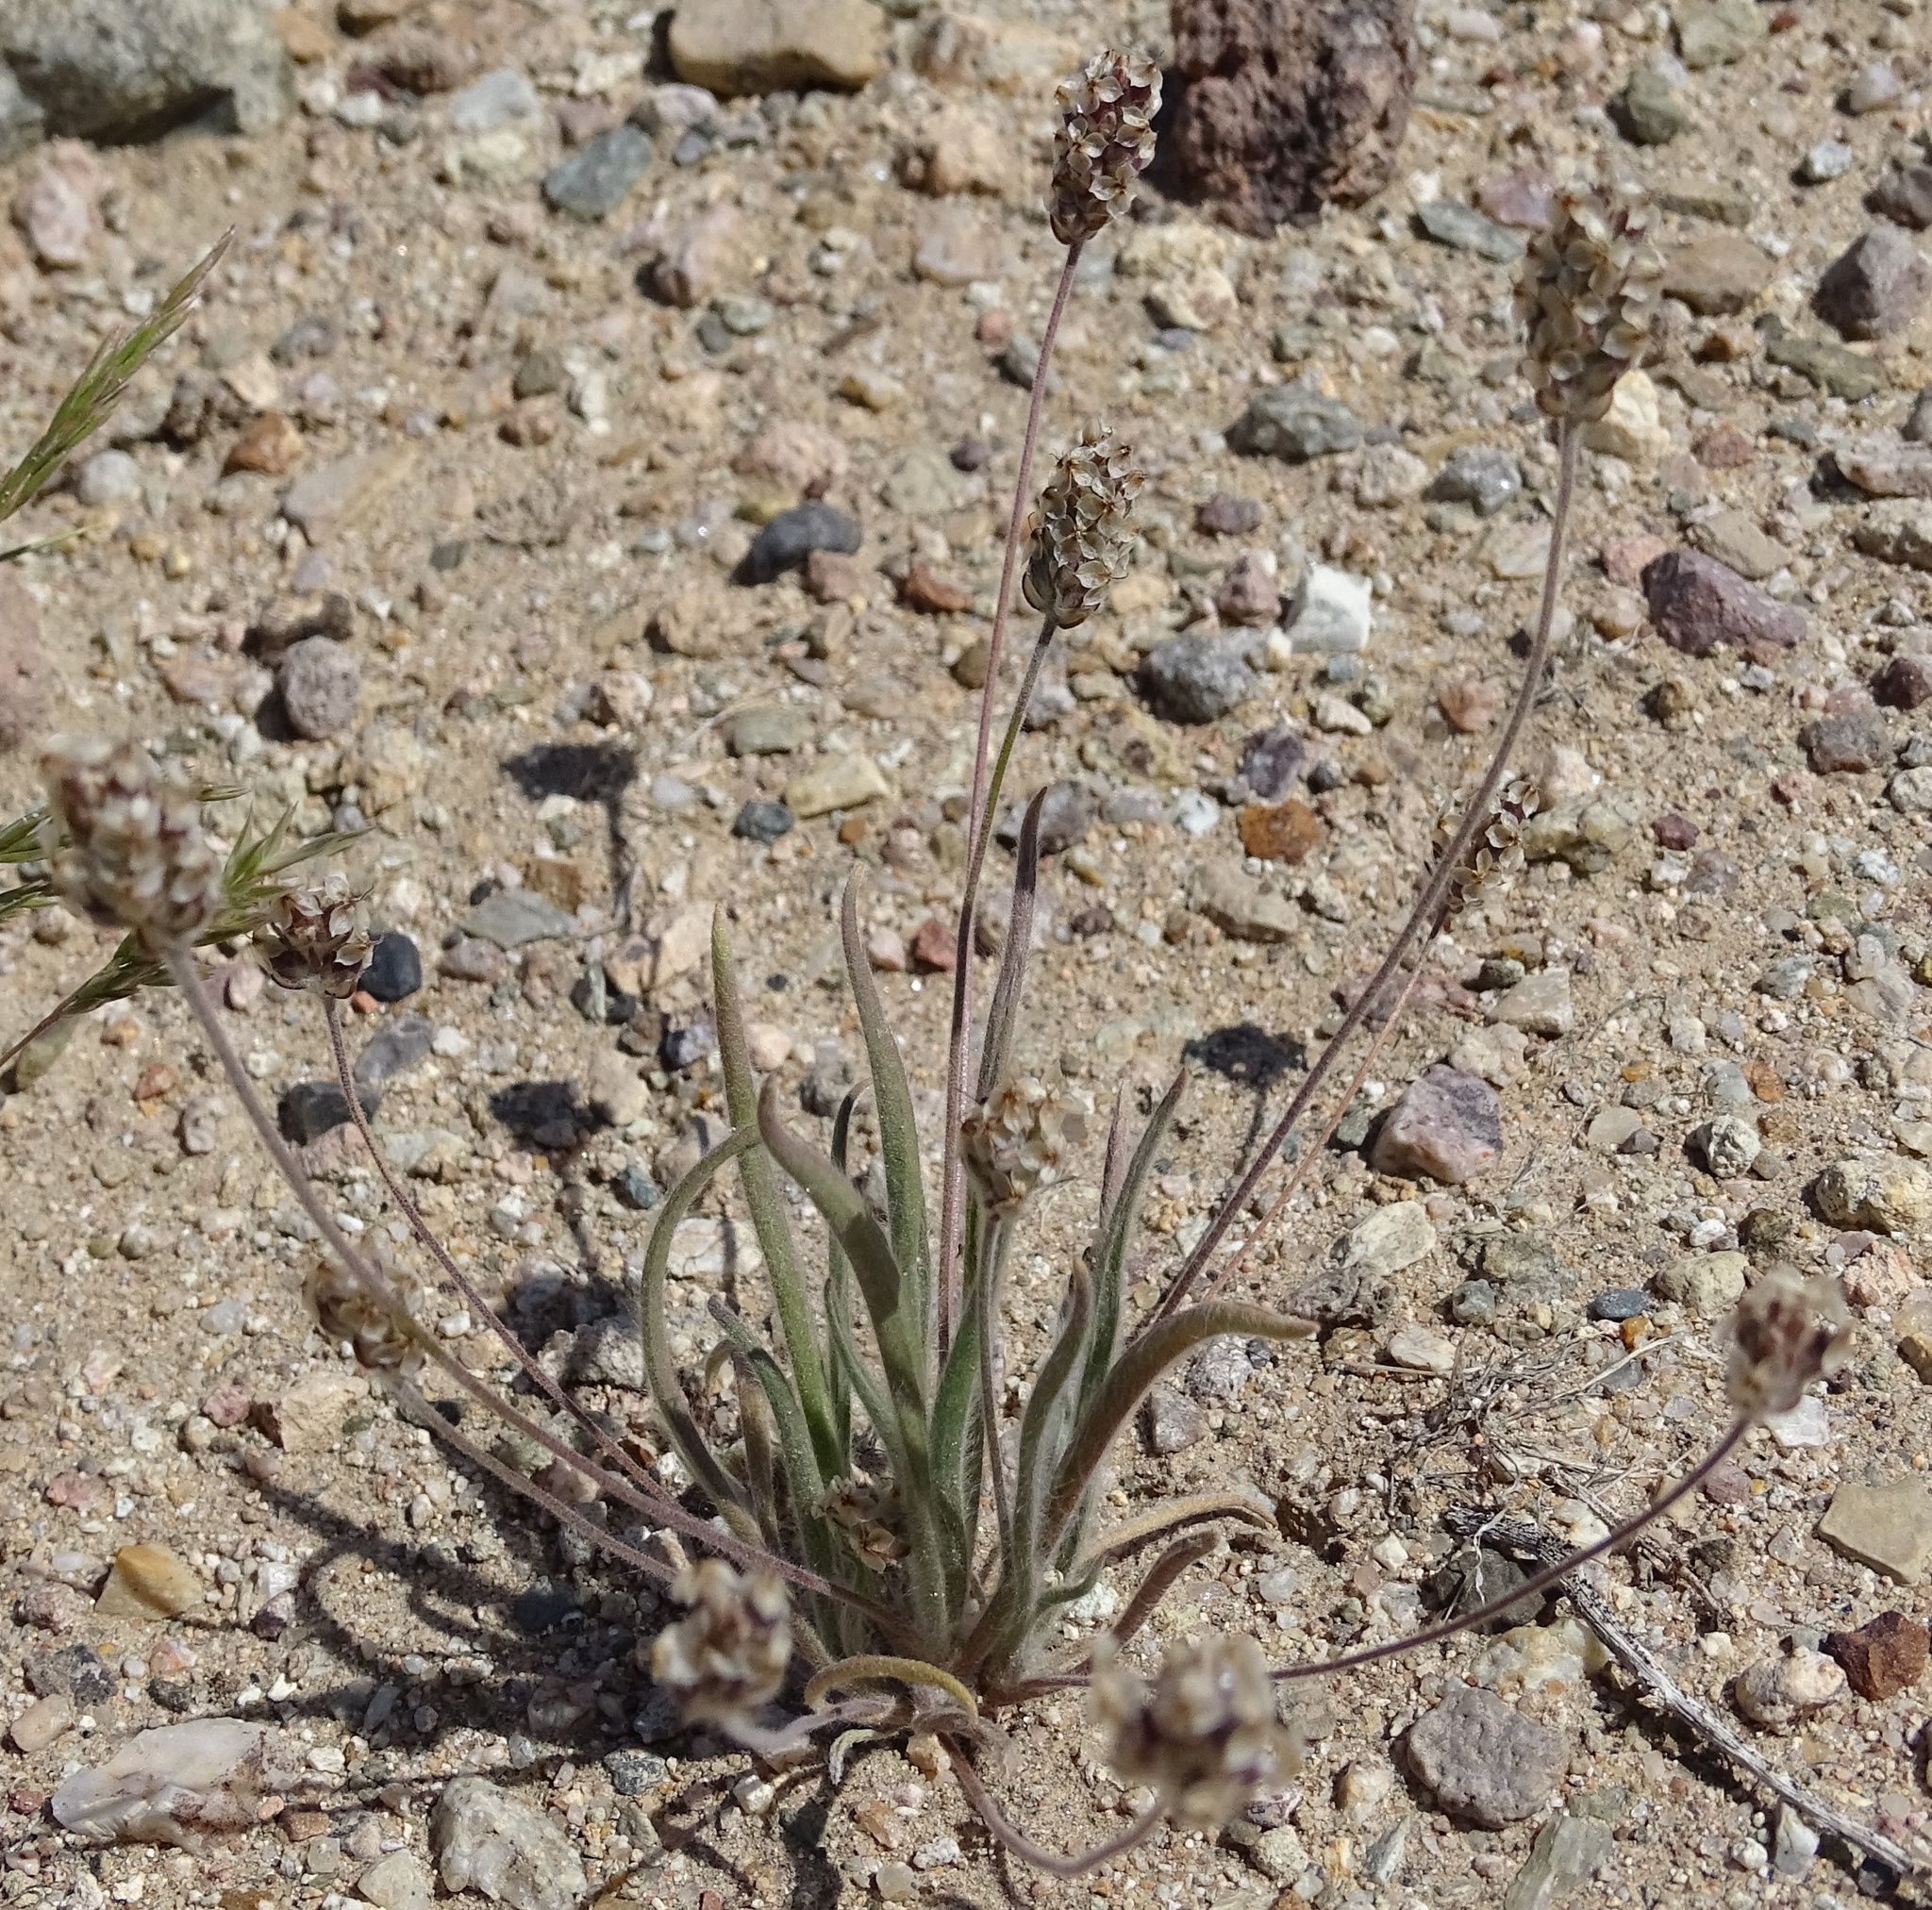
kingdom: Plantae
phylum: Tracheophyta
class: Magnoliopsida
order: Lamiales
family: Plantaginaceae
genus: Plantago
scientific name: Plantago ovata
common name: Blond plantain
